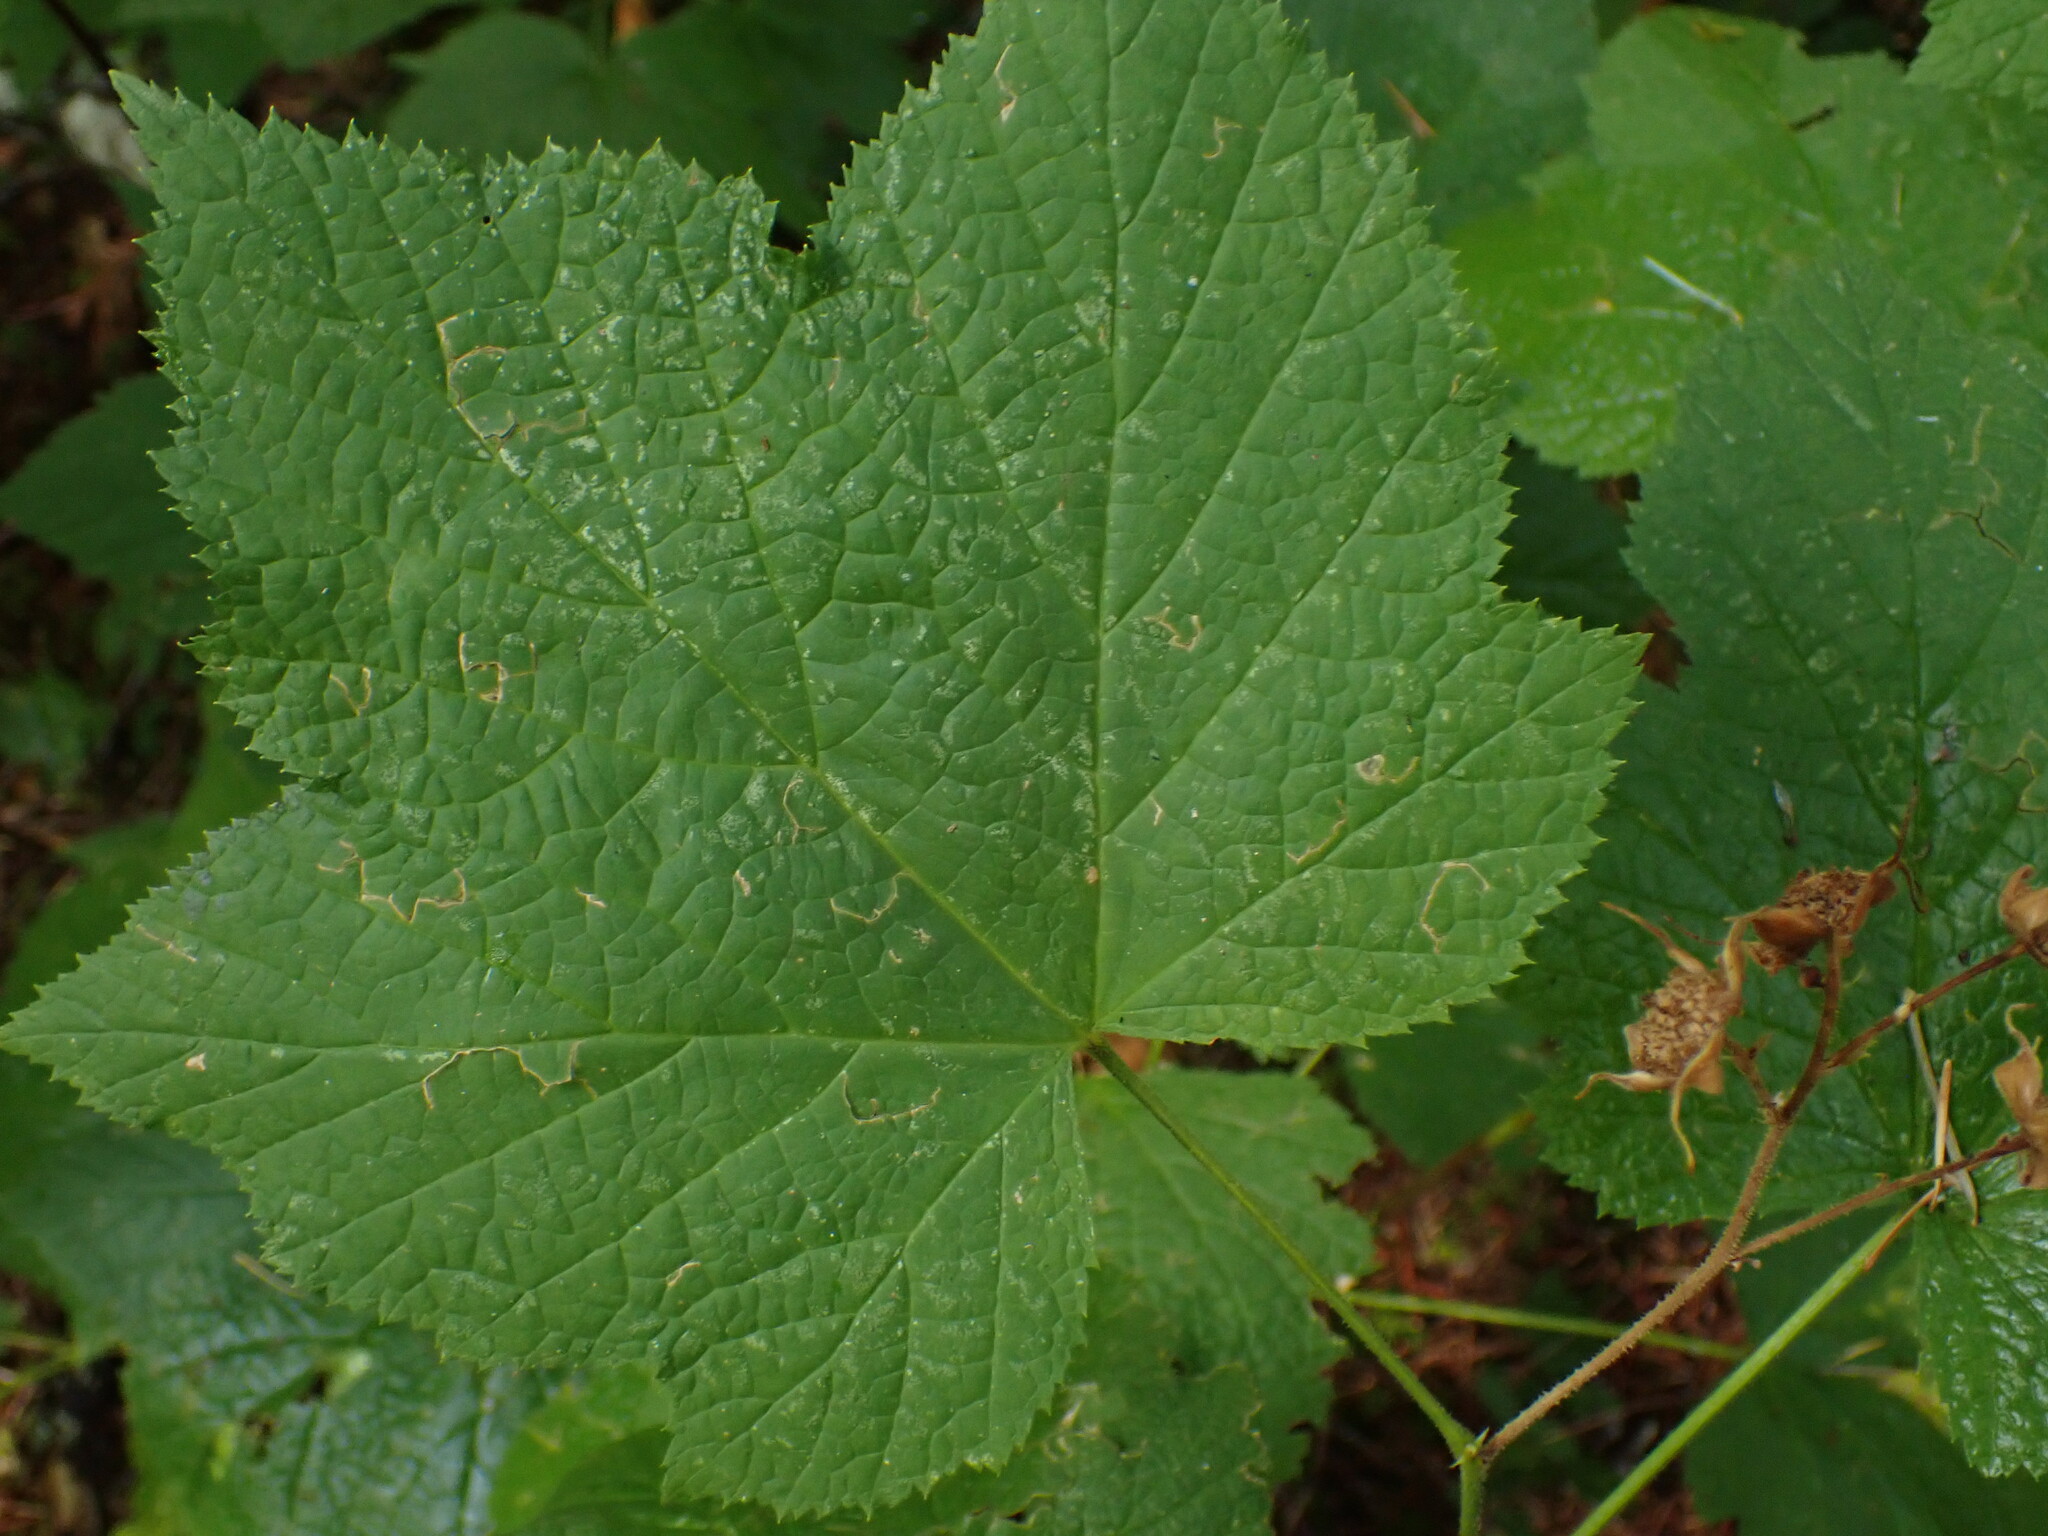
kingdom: Plantae
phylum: Tracheophyta
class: Magnoliopsida
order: Rosales
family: Rosaceae
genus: Rubus
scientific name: Rubus parviflorus
